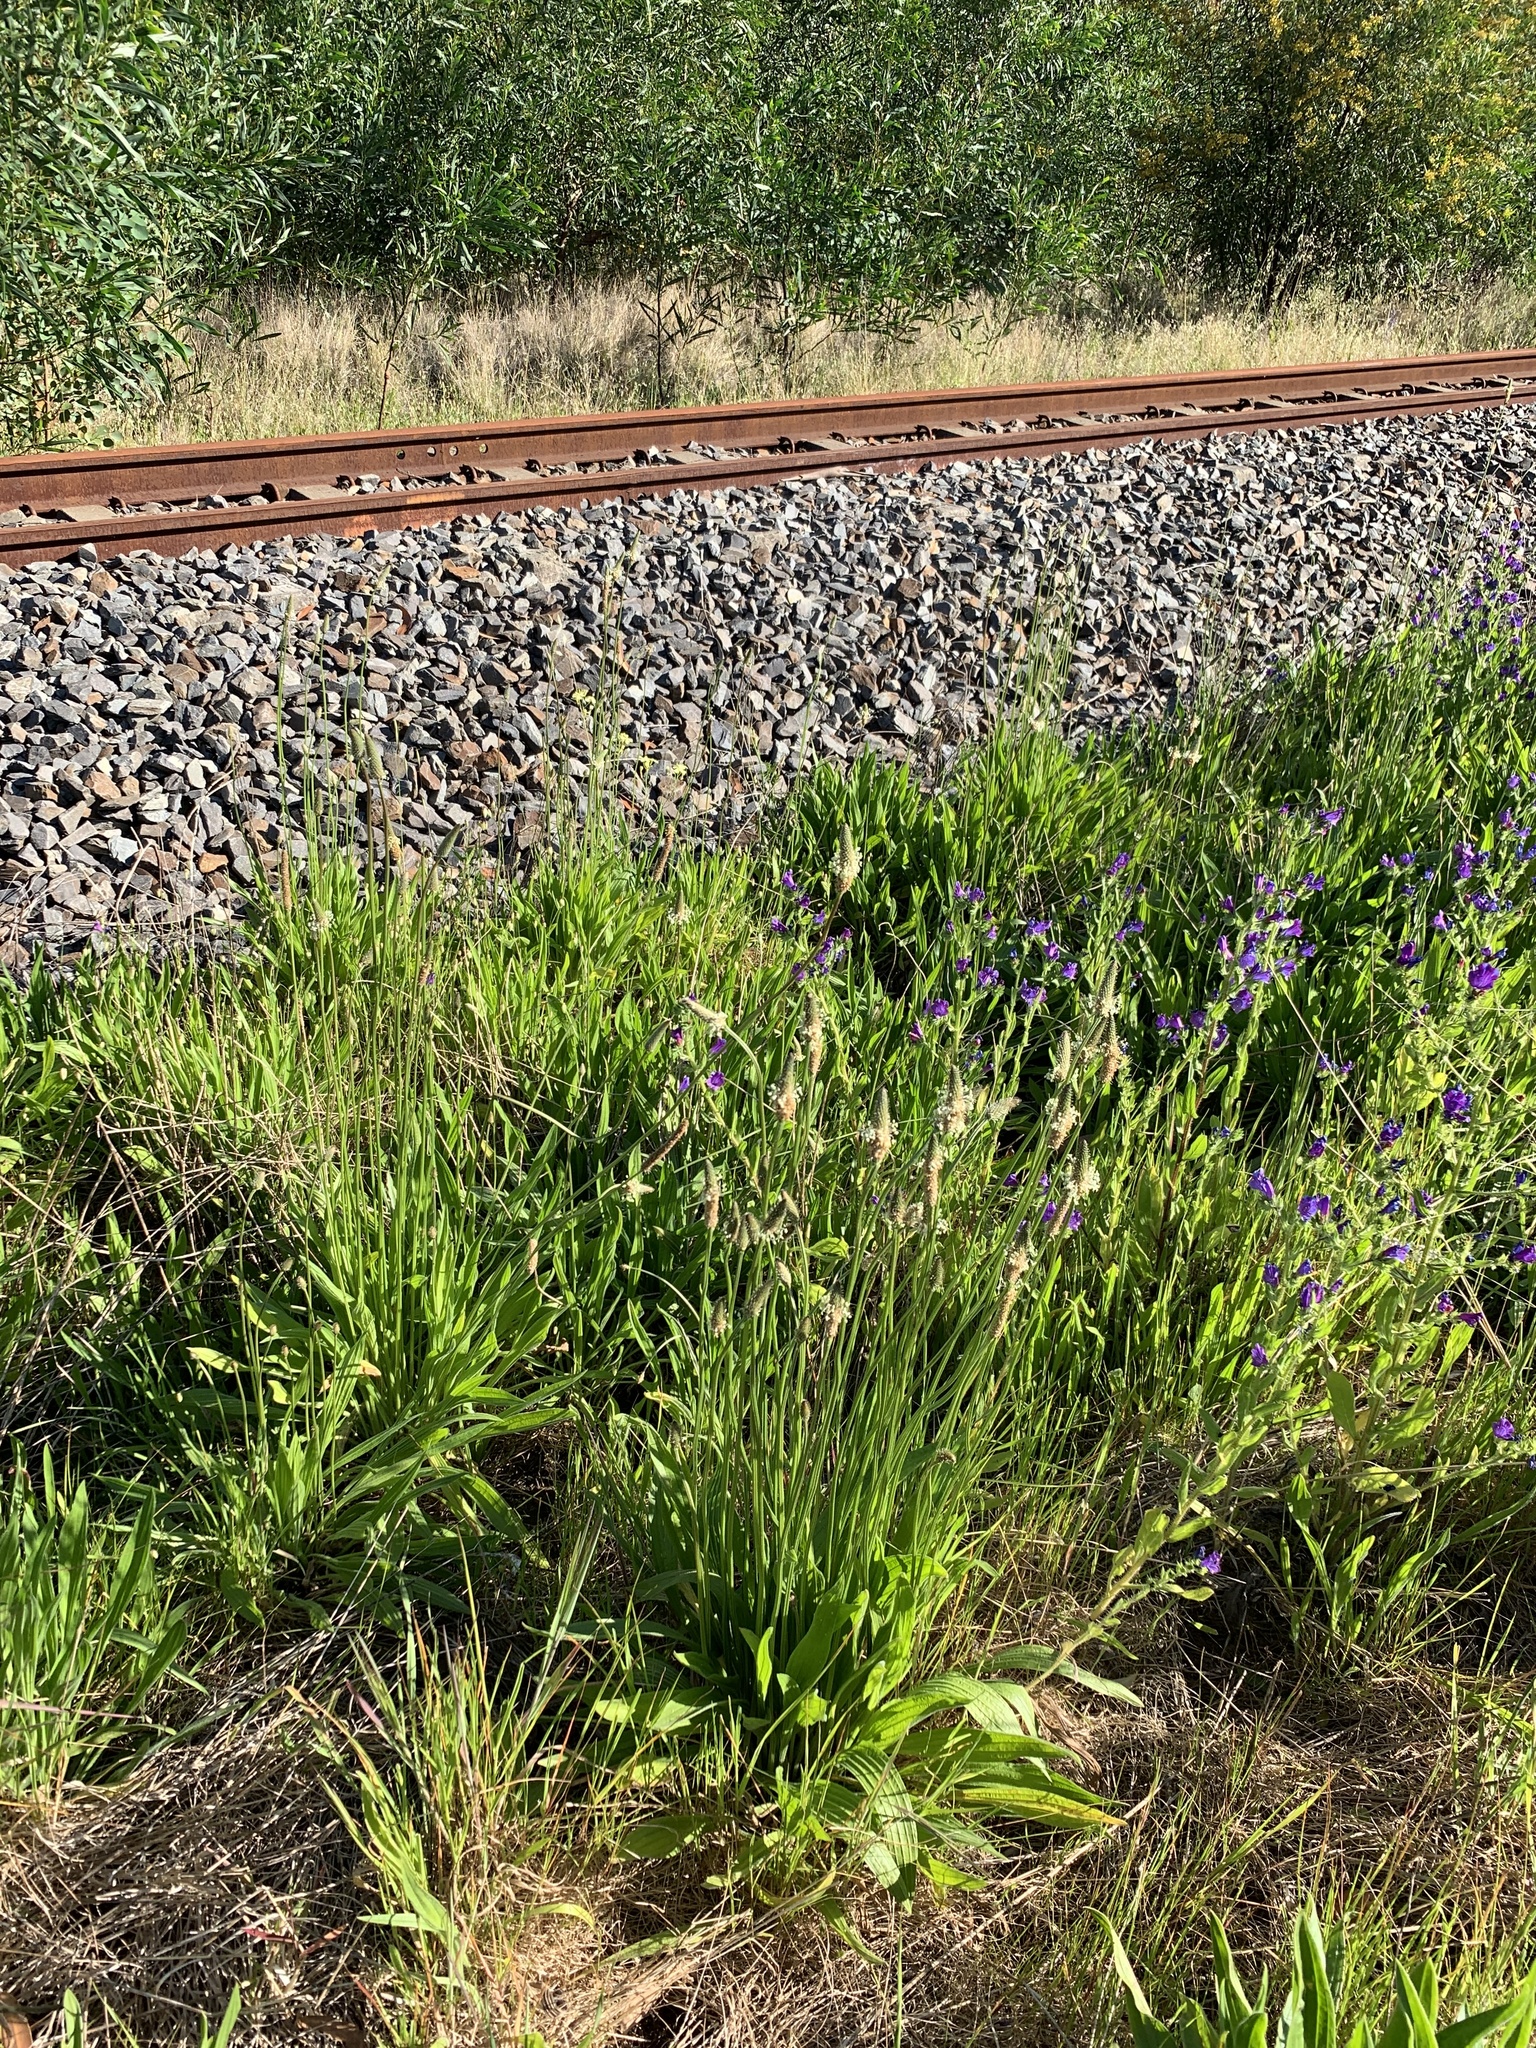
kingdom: Plantae
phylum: Tracheophyta
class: Magnoliopsida
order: Lamiales
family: Plantaginaceae
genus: Plantago
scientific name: Plantago lanceolata
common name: Ribwort plantain
